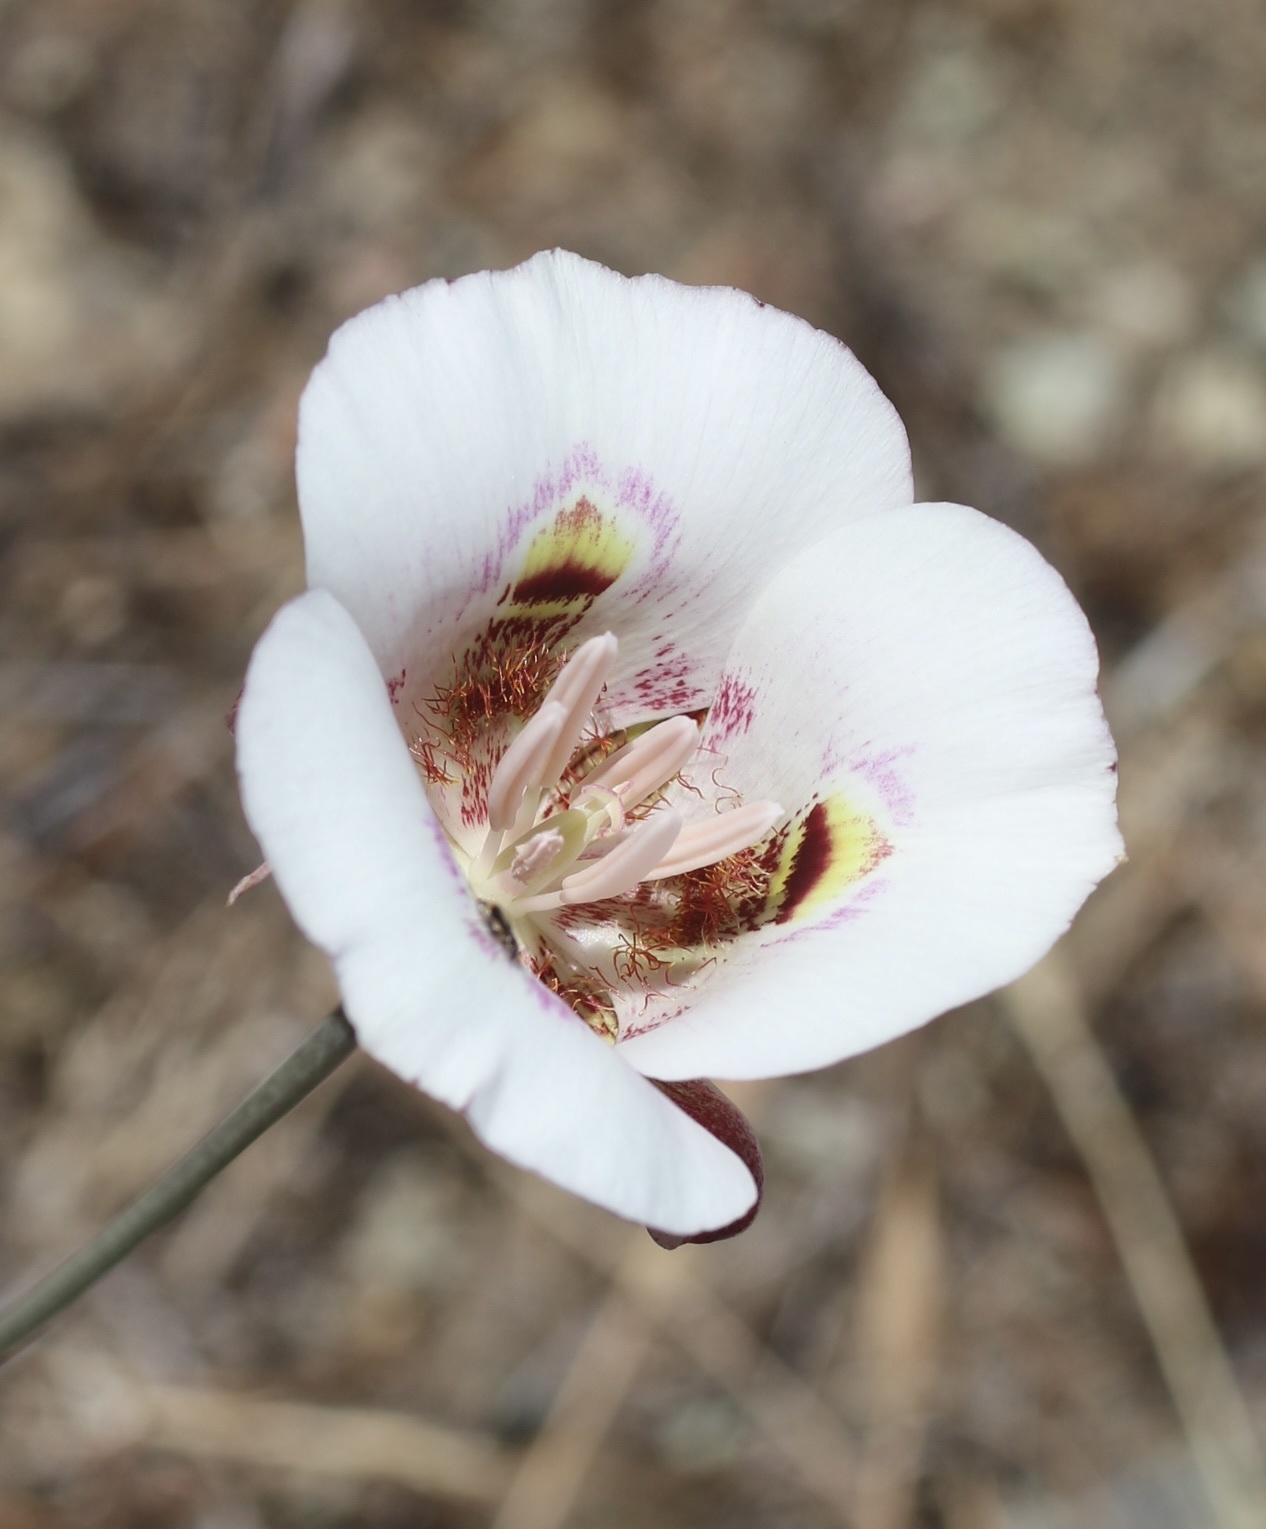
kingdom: Plantae
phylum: Tracheophyta
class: Liliopsida
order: Liliales
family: Liliaceae
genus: Calochortus
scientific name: Calochortus argillosus
